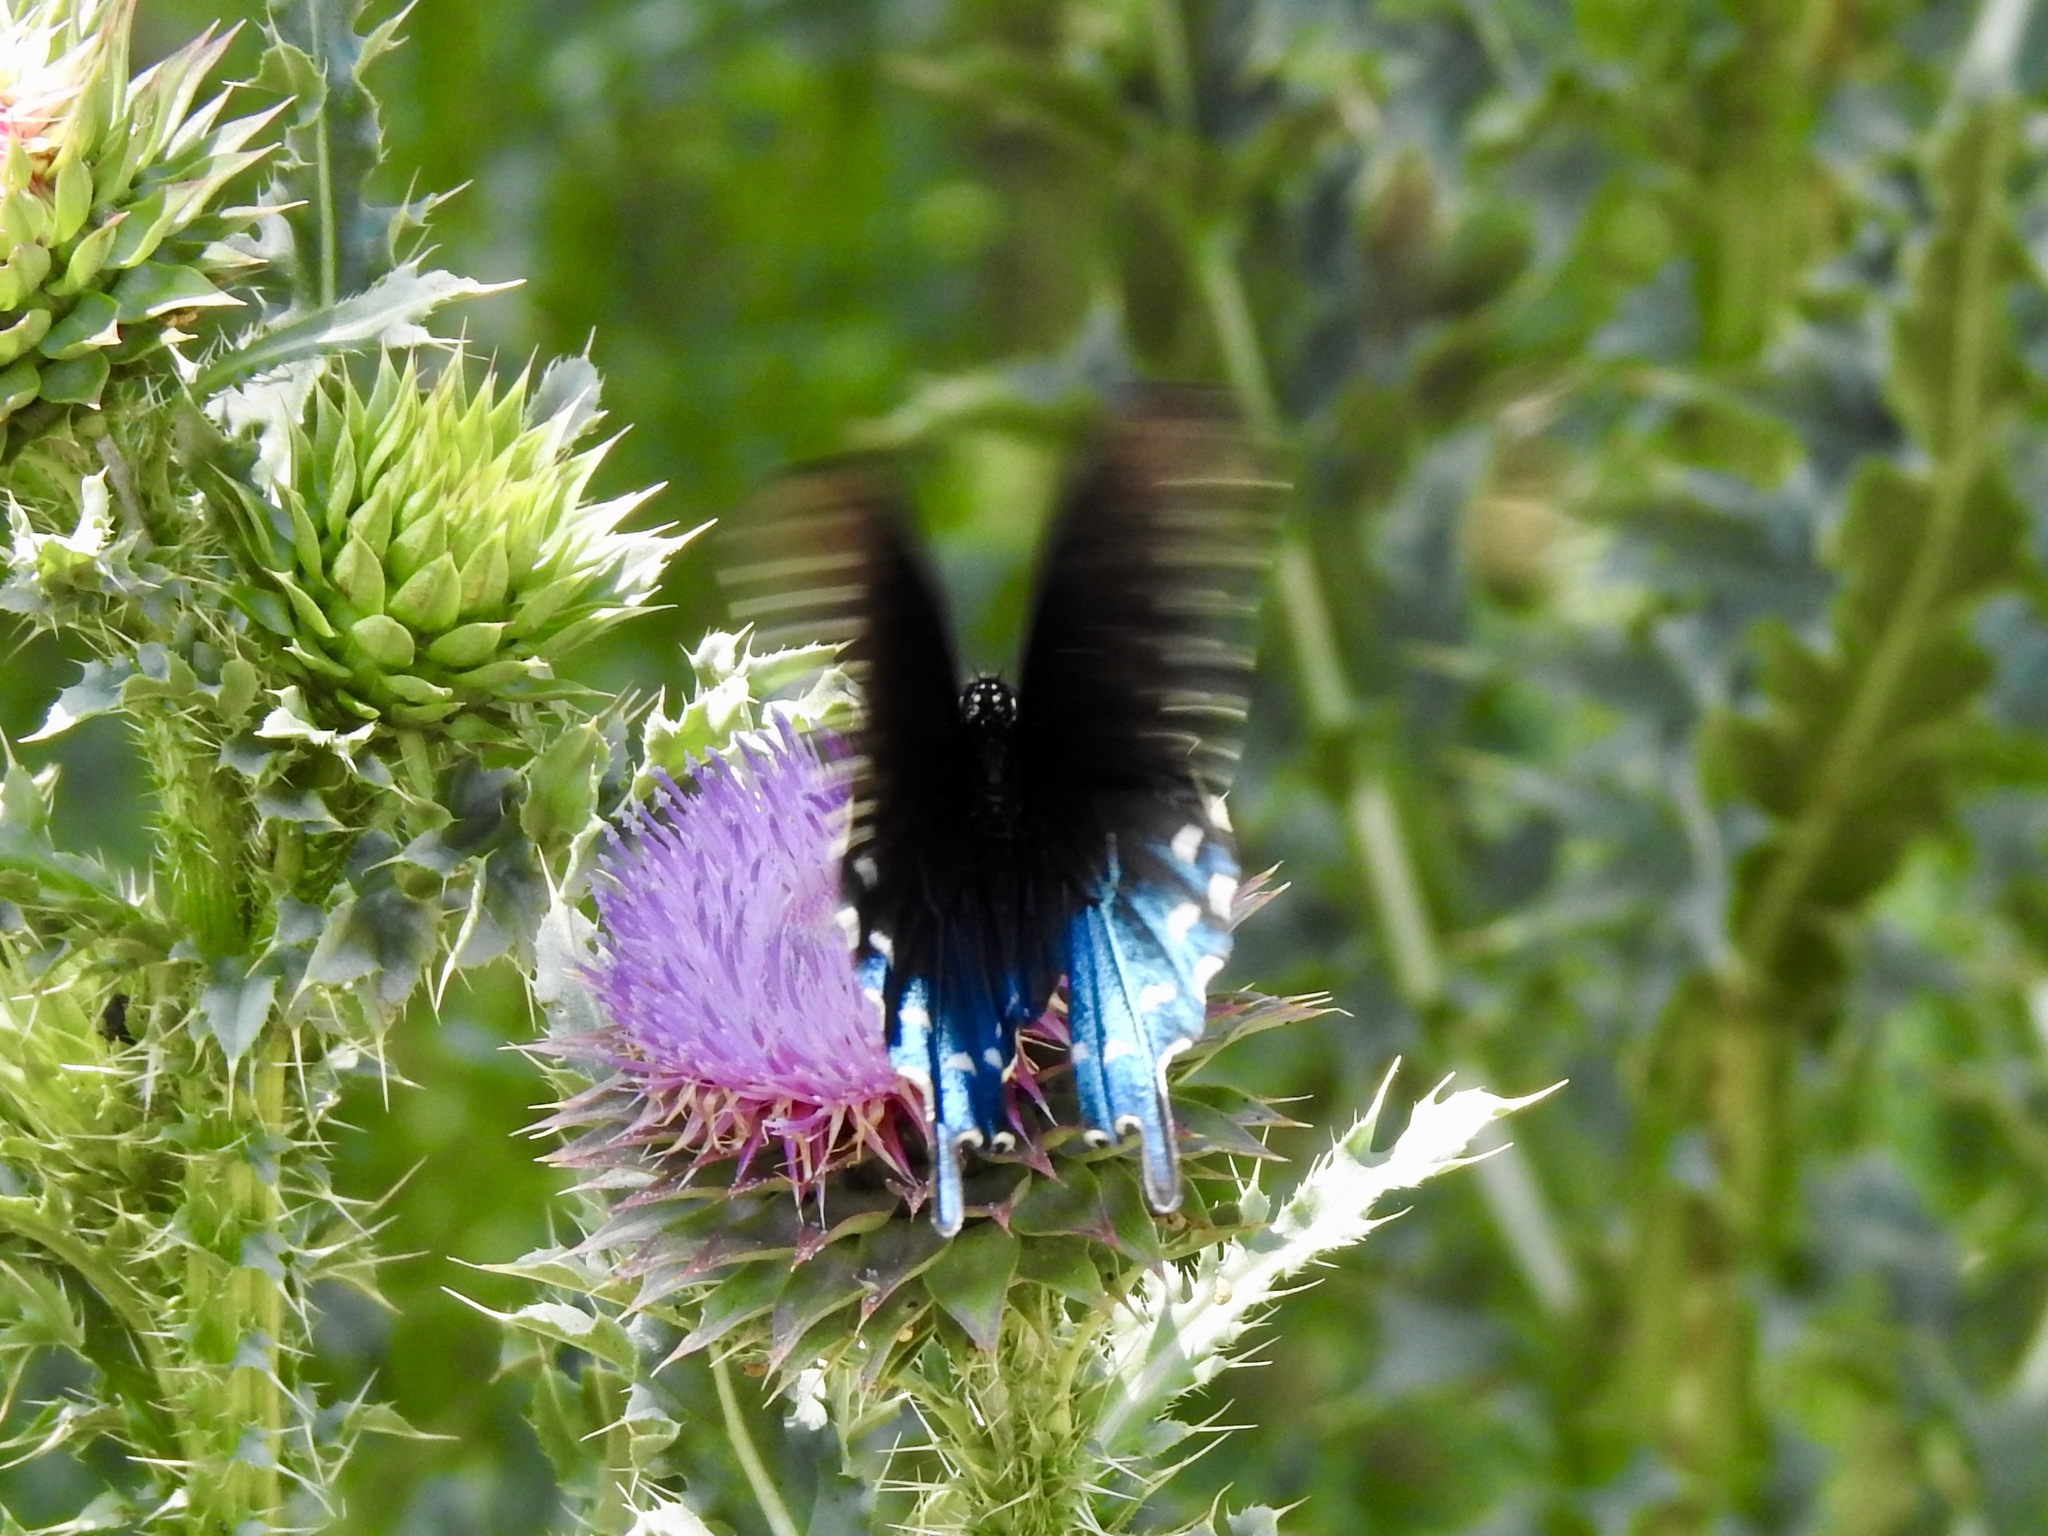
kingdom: Animalia
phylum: Arthropoda
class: Insecta
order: Lepidoptera
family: Papilionidae
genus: Battus
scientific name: Battus philenor
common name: Pipevine swallowtail
